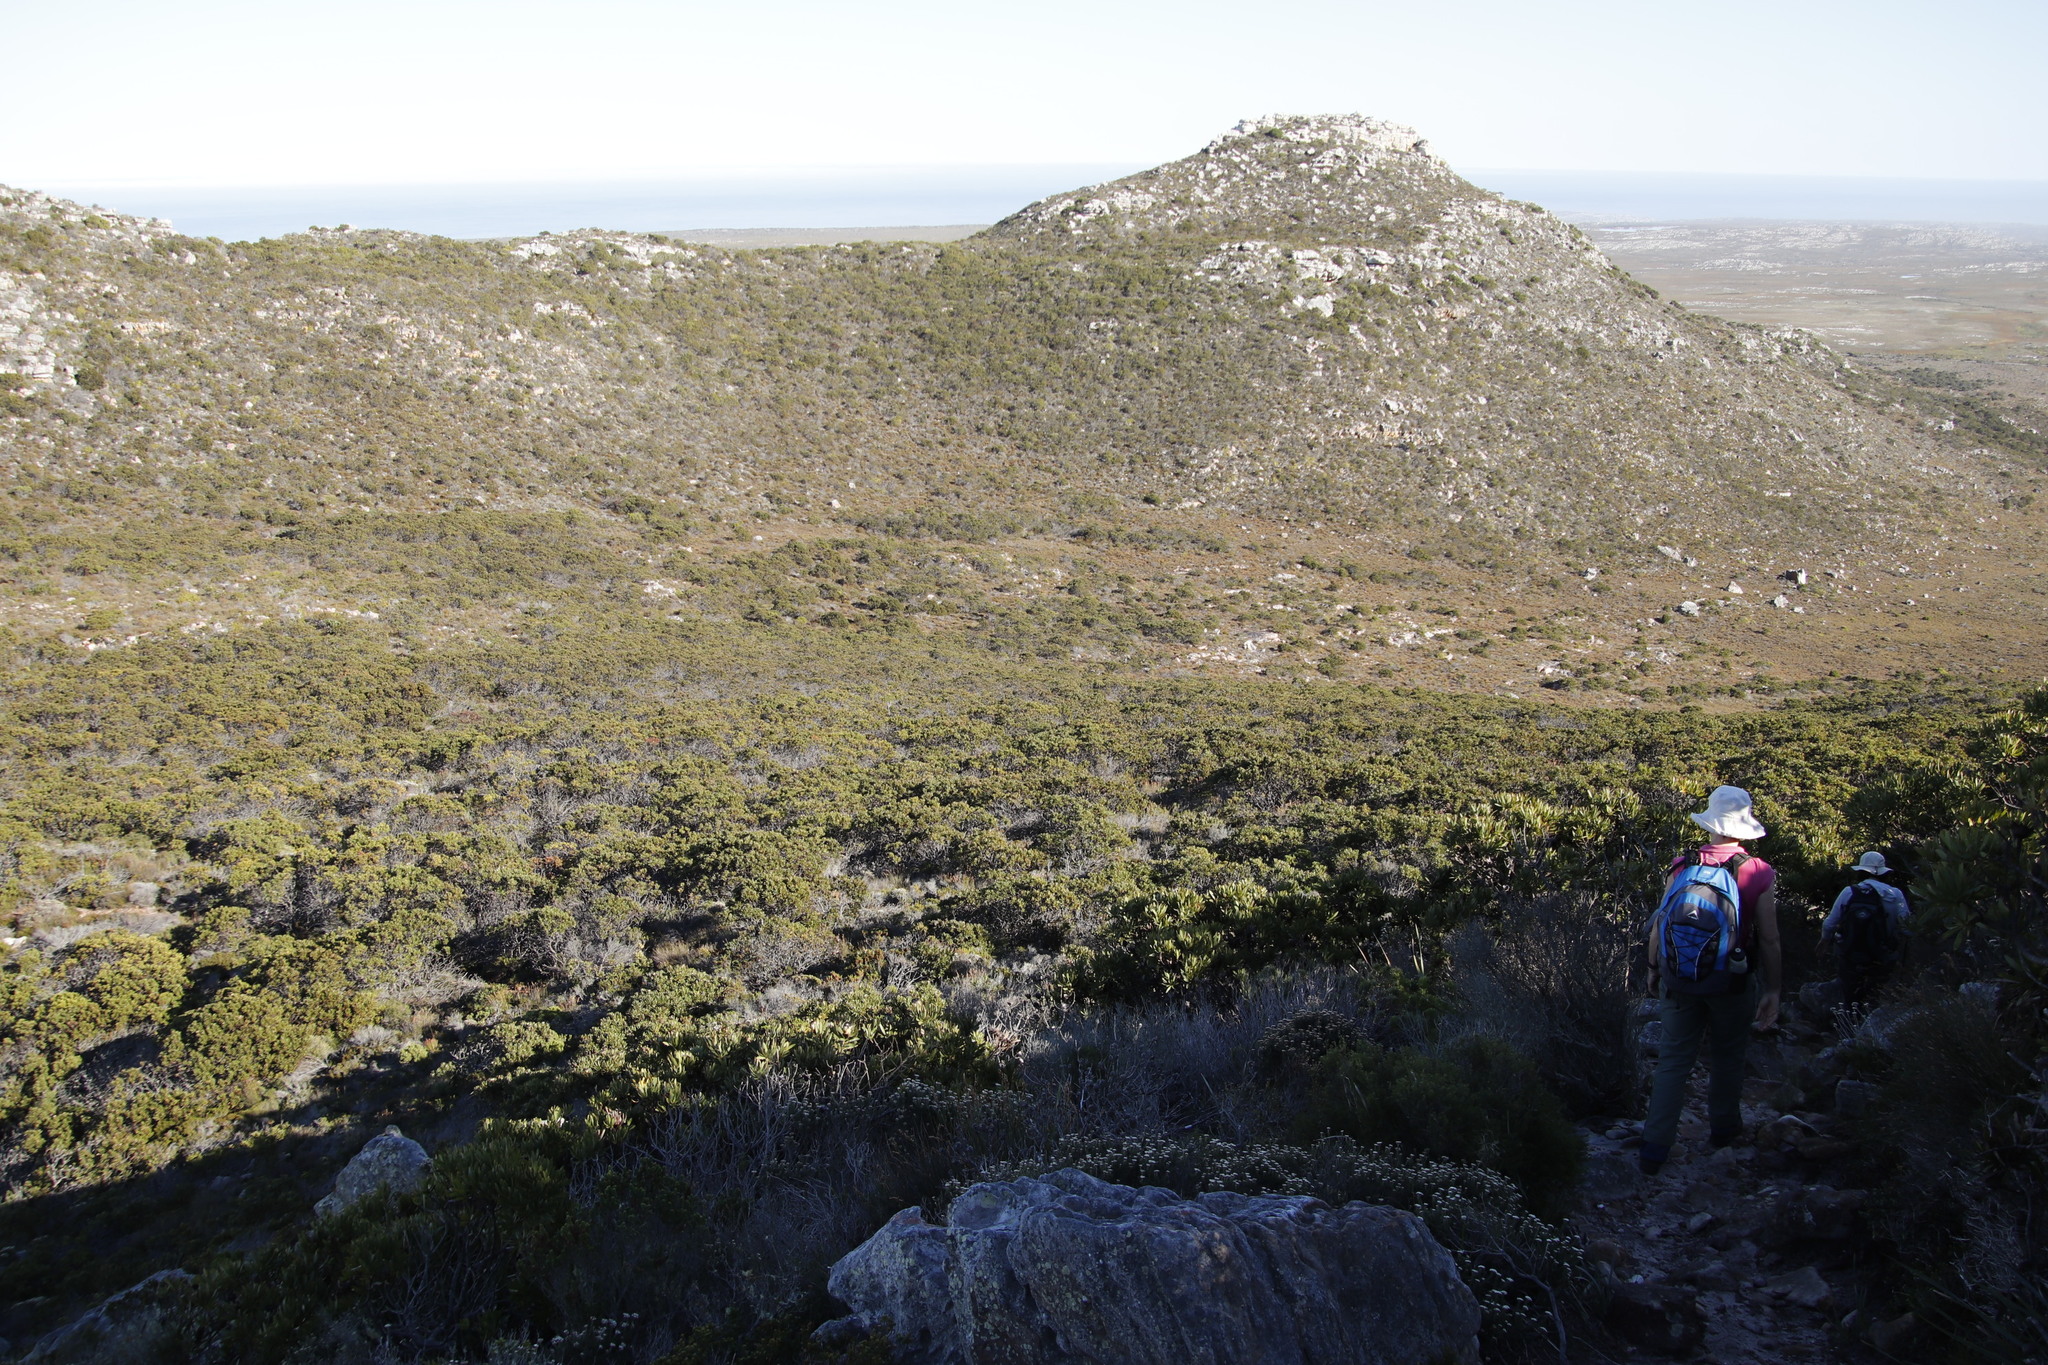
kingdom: Plantae
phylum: Tracheophyta
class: Magnoliopsida
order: Proteales
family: Proteaceae
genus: Protea
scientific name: Protea lepidocarpodendron
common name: Black-bearded protea
